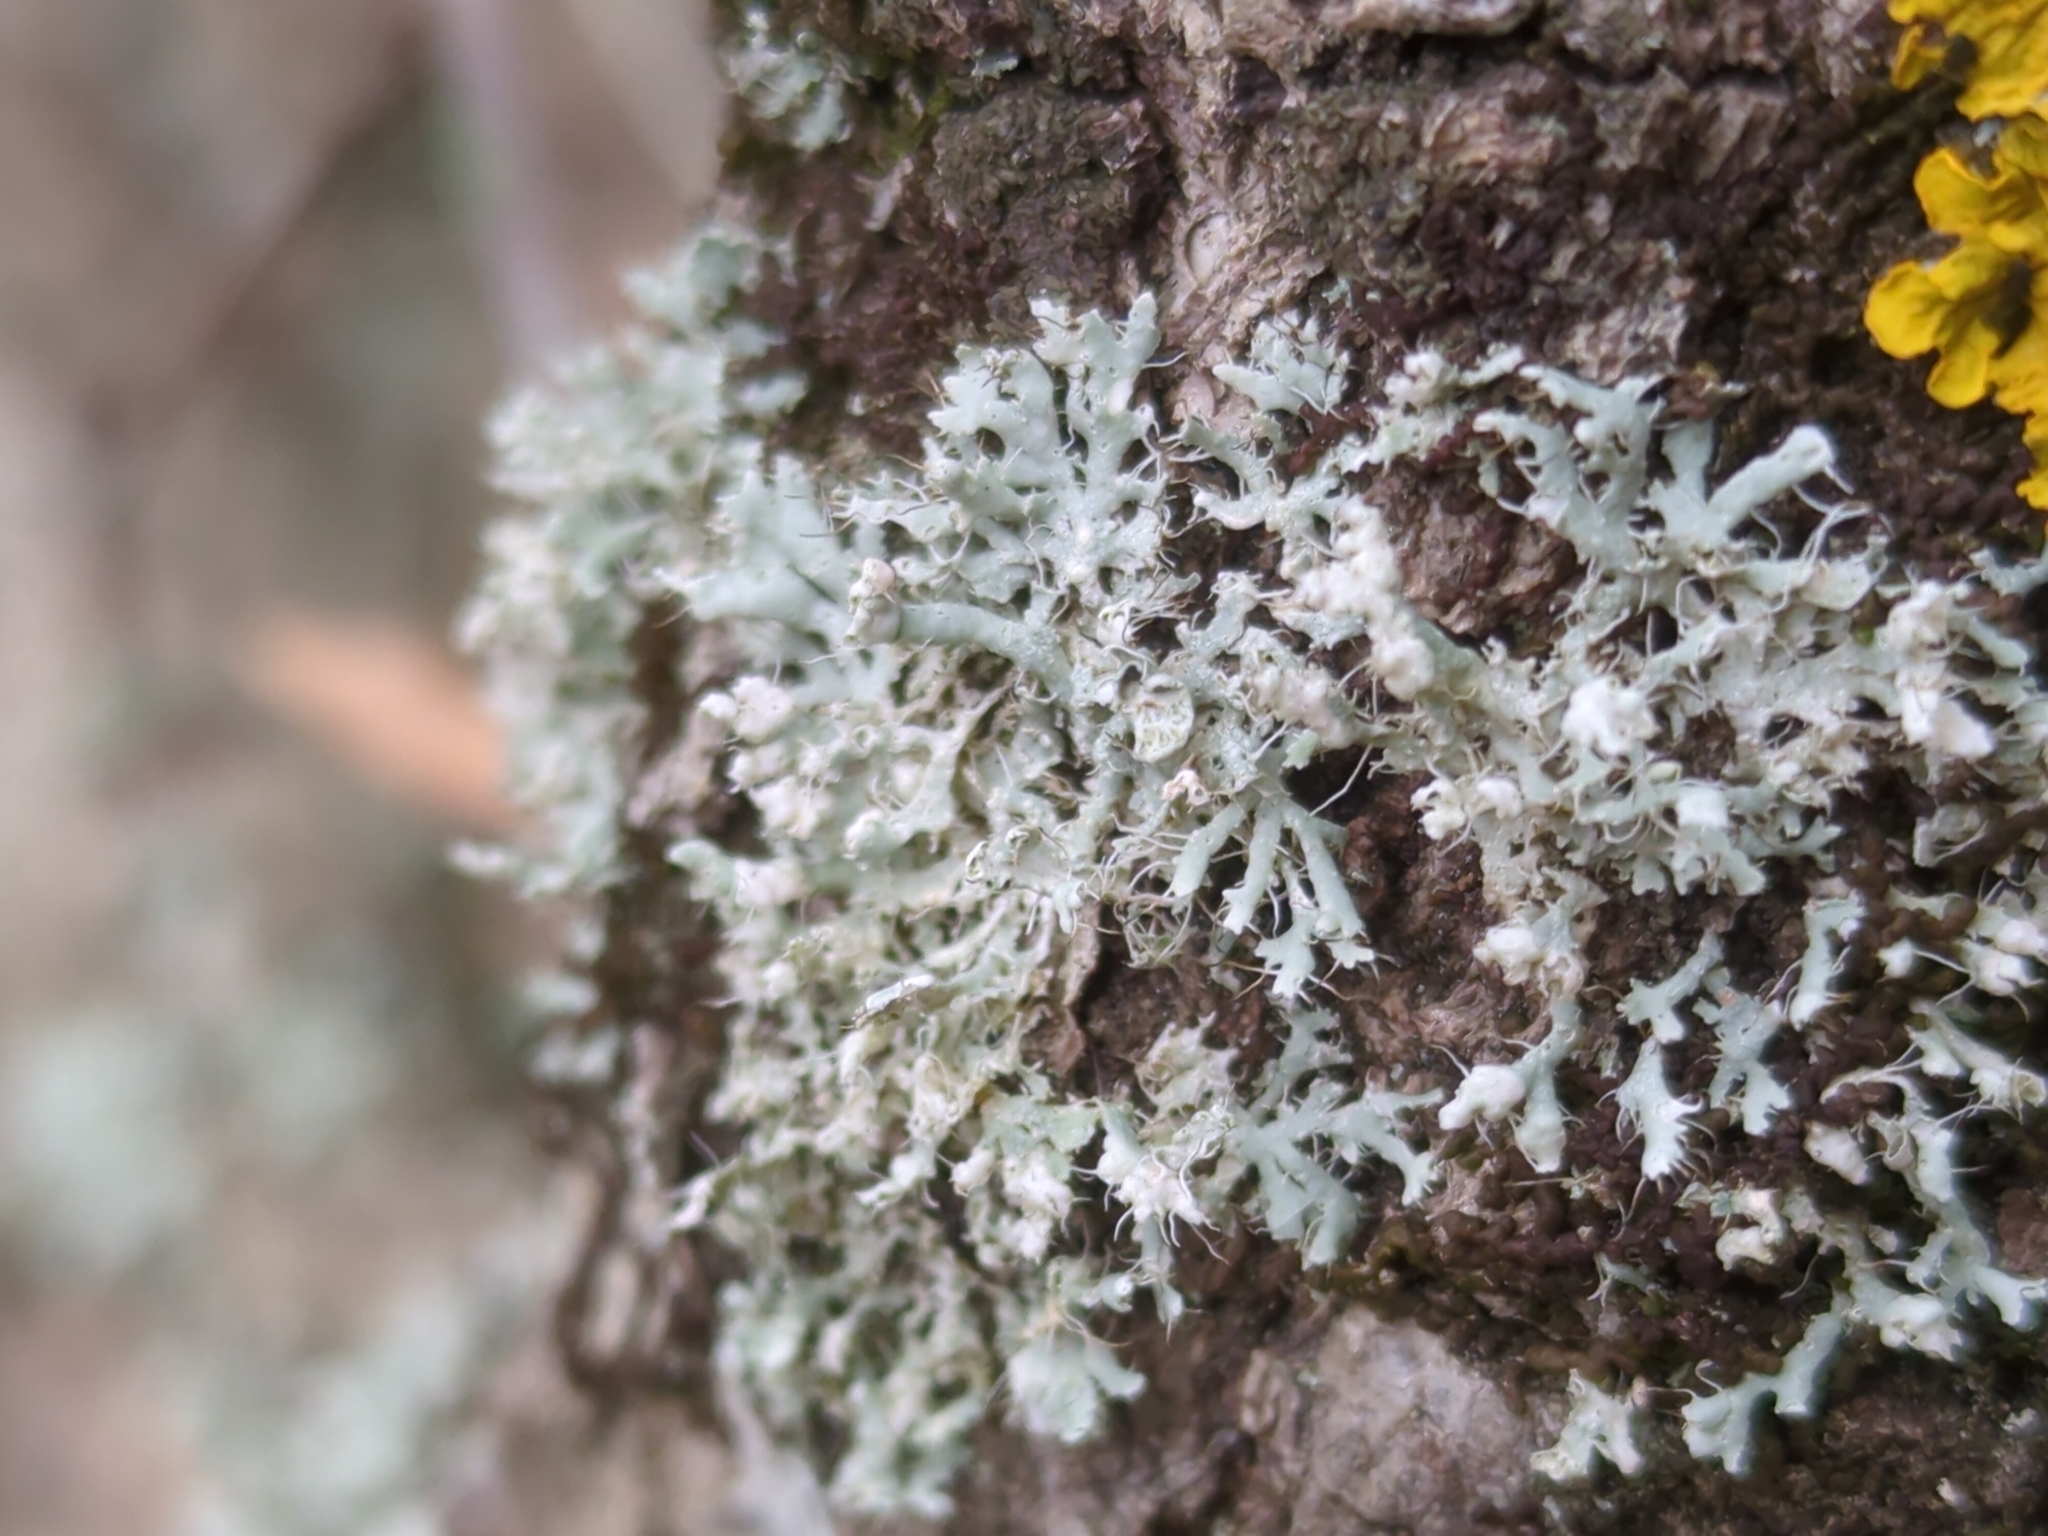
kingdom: Fungi
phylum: Ascomycota
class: Lecanoromycetes
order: Caliciales
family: Physciaceae
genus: Physcia
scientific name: Physcia adscendens
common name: Hooded rosette lichen
